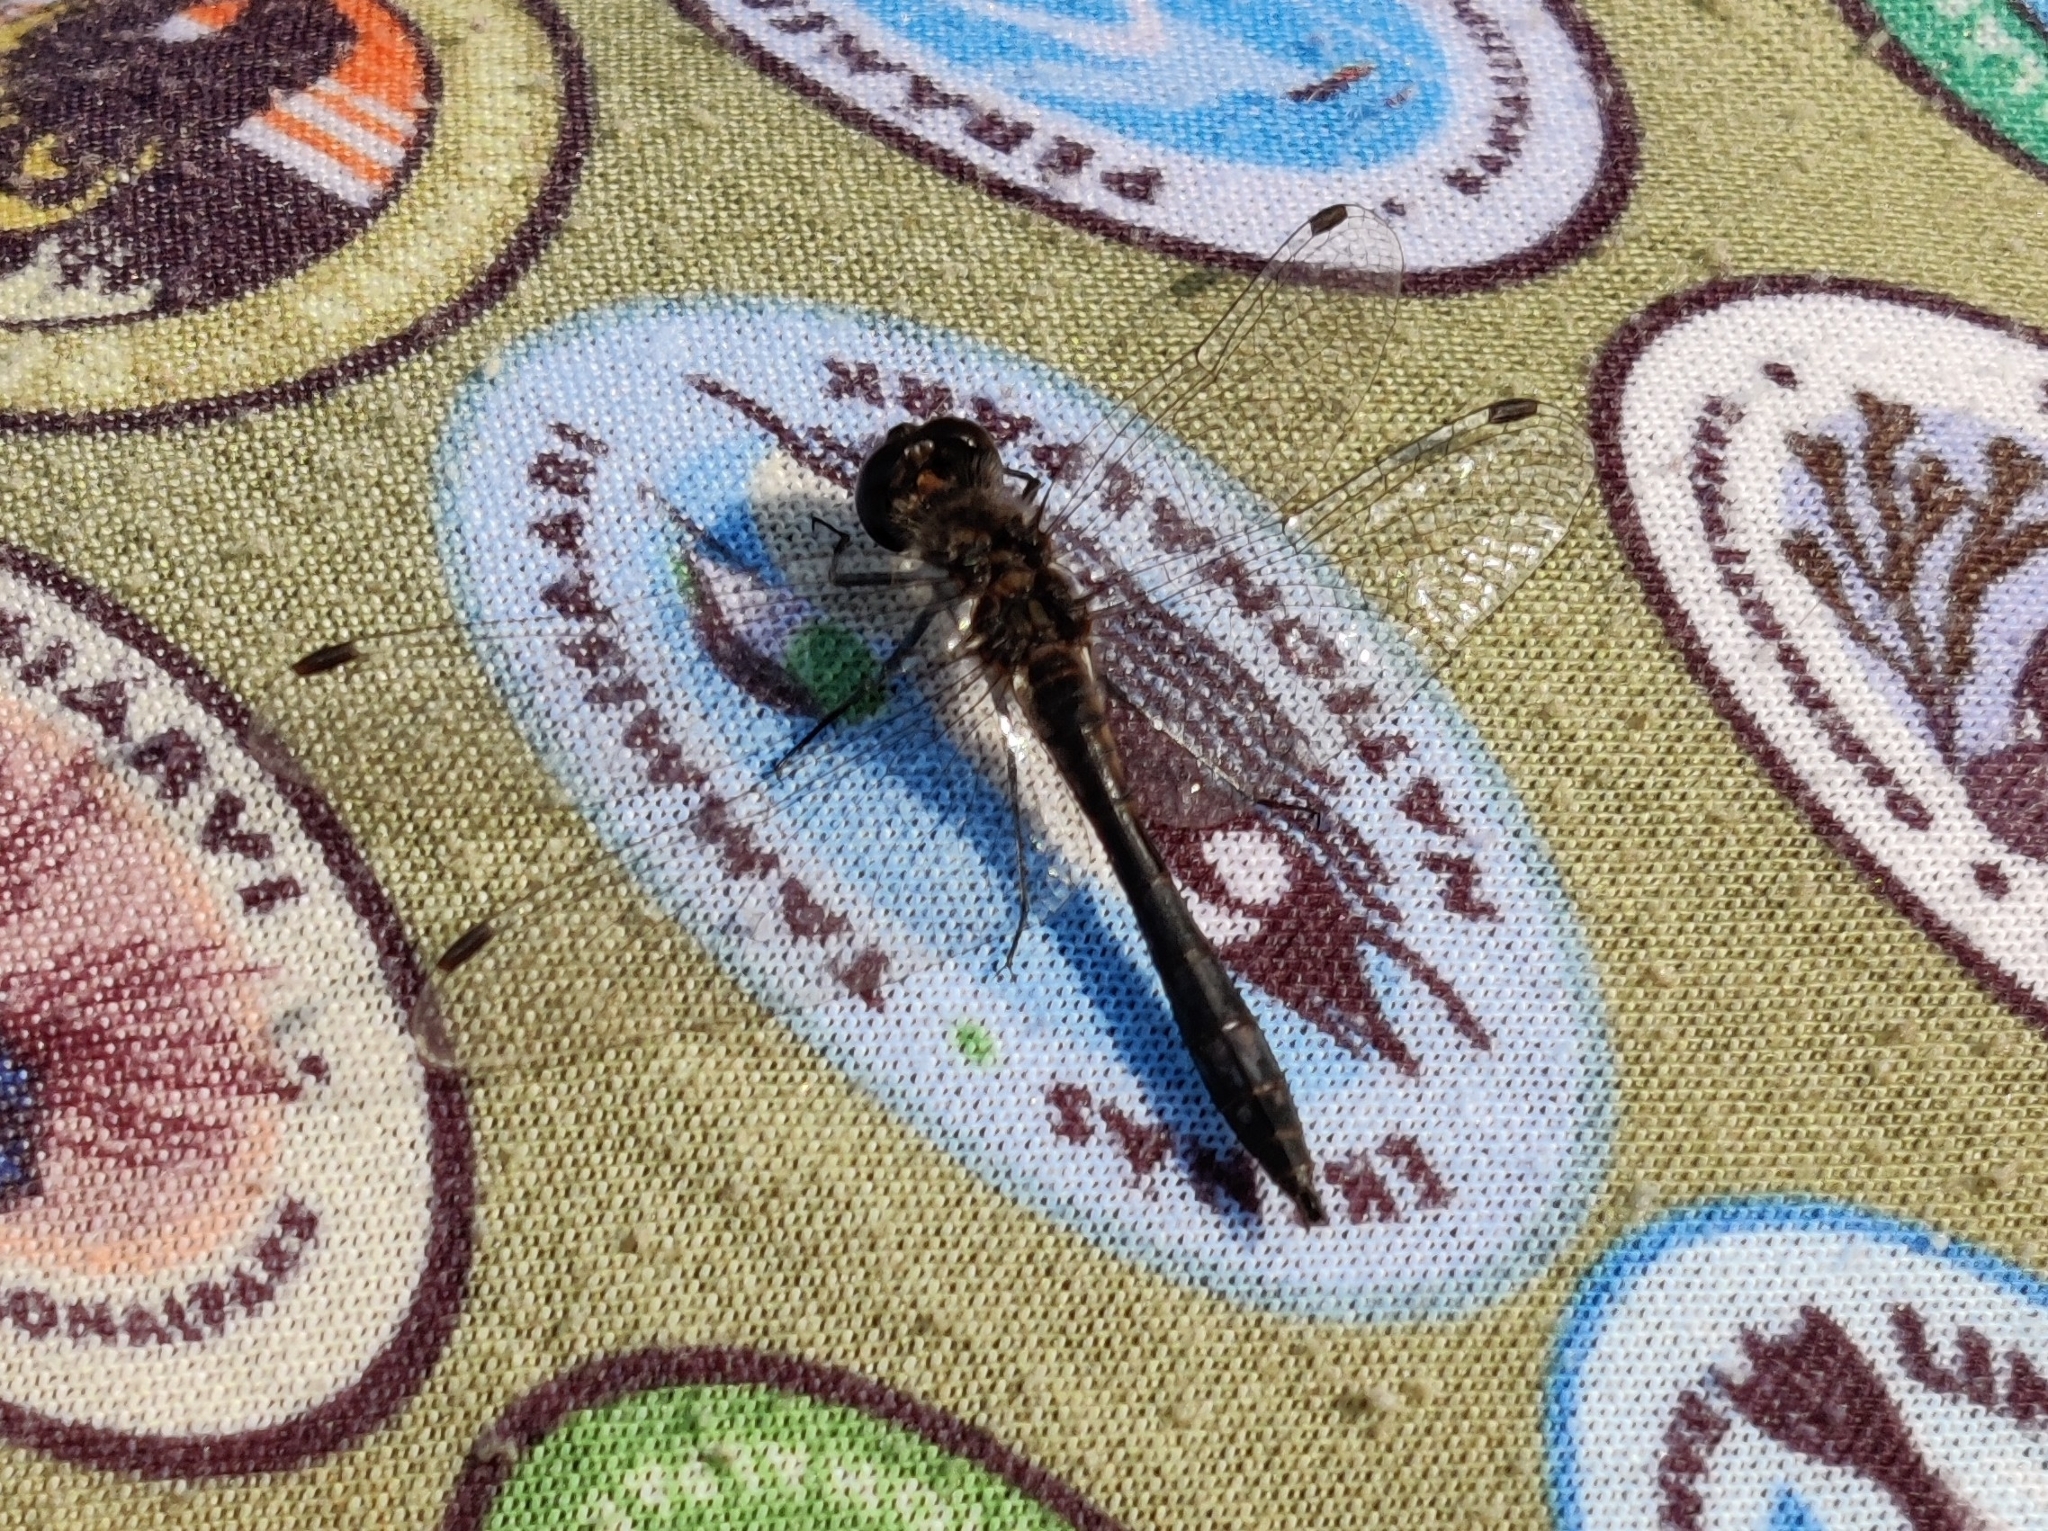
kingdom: Animalia
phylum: Arthropoda
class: Insecta
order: Odonata
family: Libellulidae
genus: Sympetrum
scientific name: Sympetrum danae
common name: Black darter
